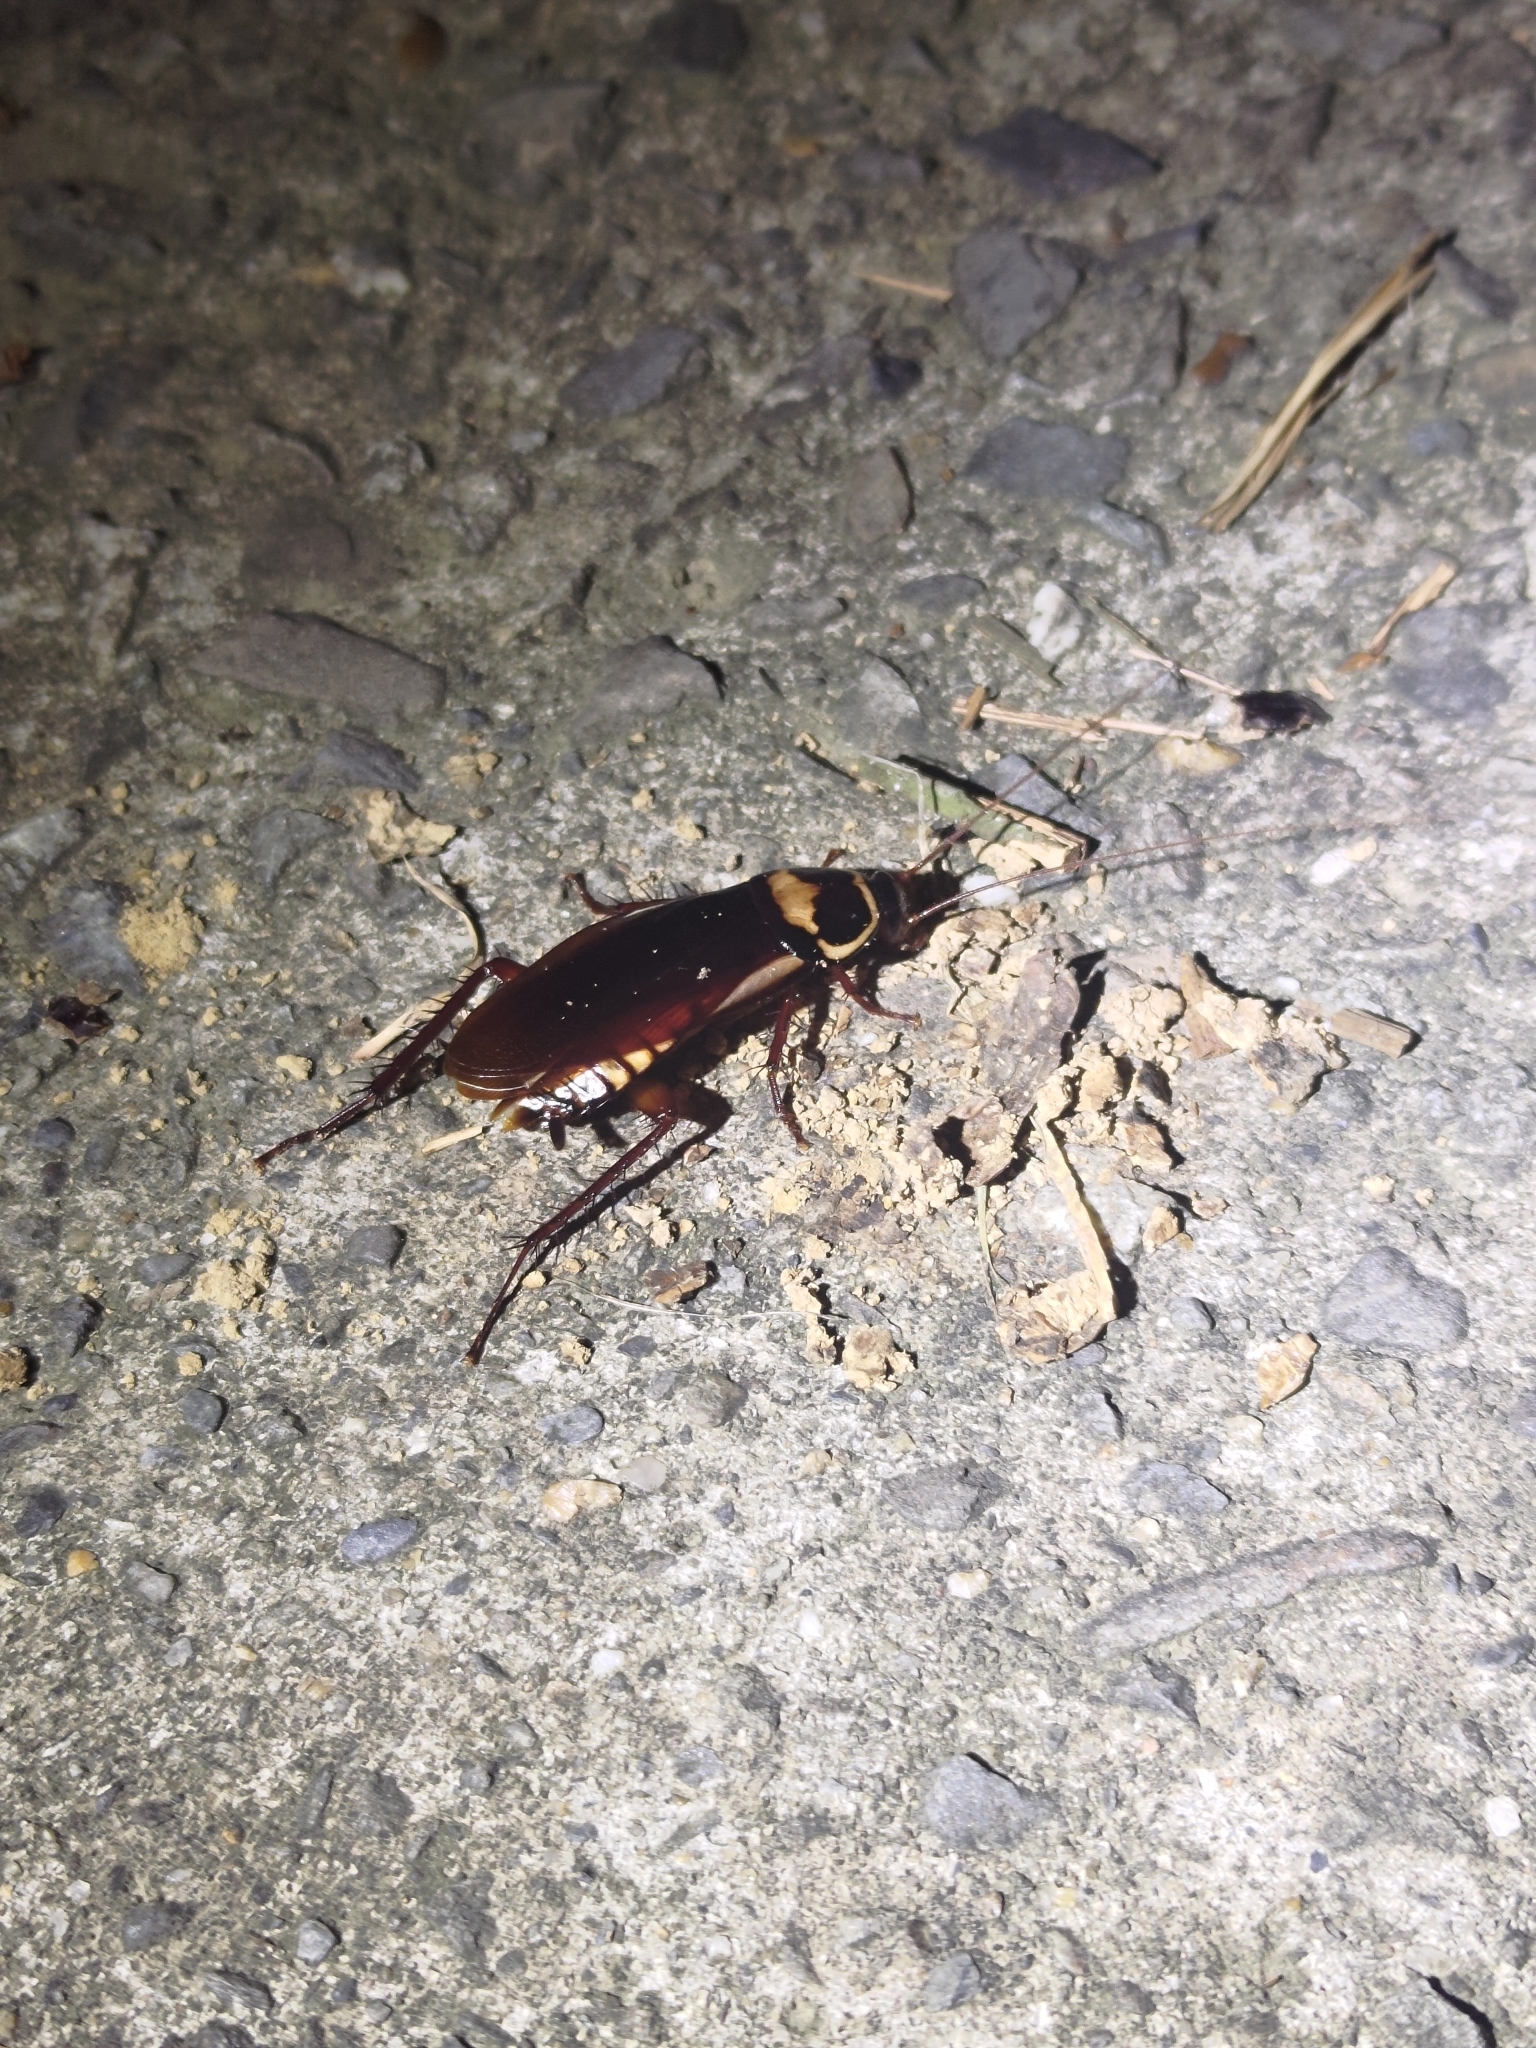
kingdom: Animalia
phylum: Arthropoda
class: Insecta
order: Blattodea
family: Blattidae
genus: Periplaneta
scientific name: Periplaneta australasiae
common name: Australian cockroach
